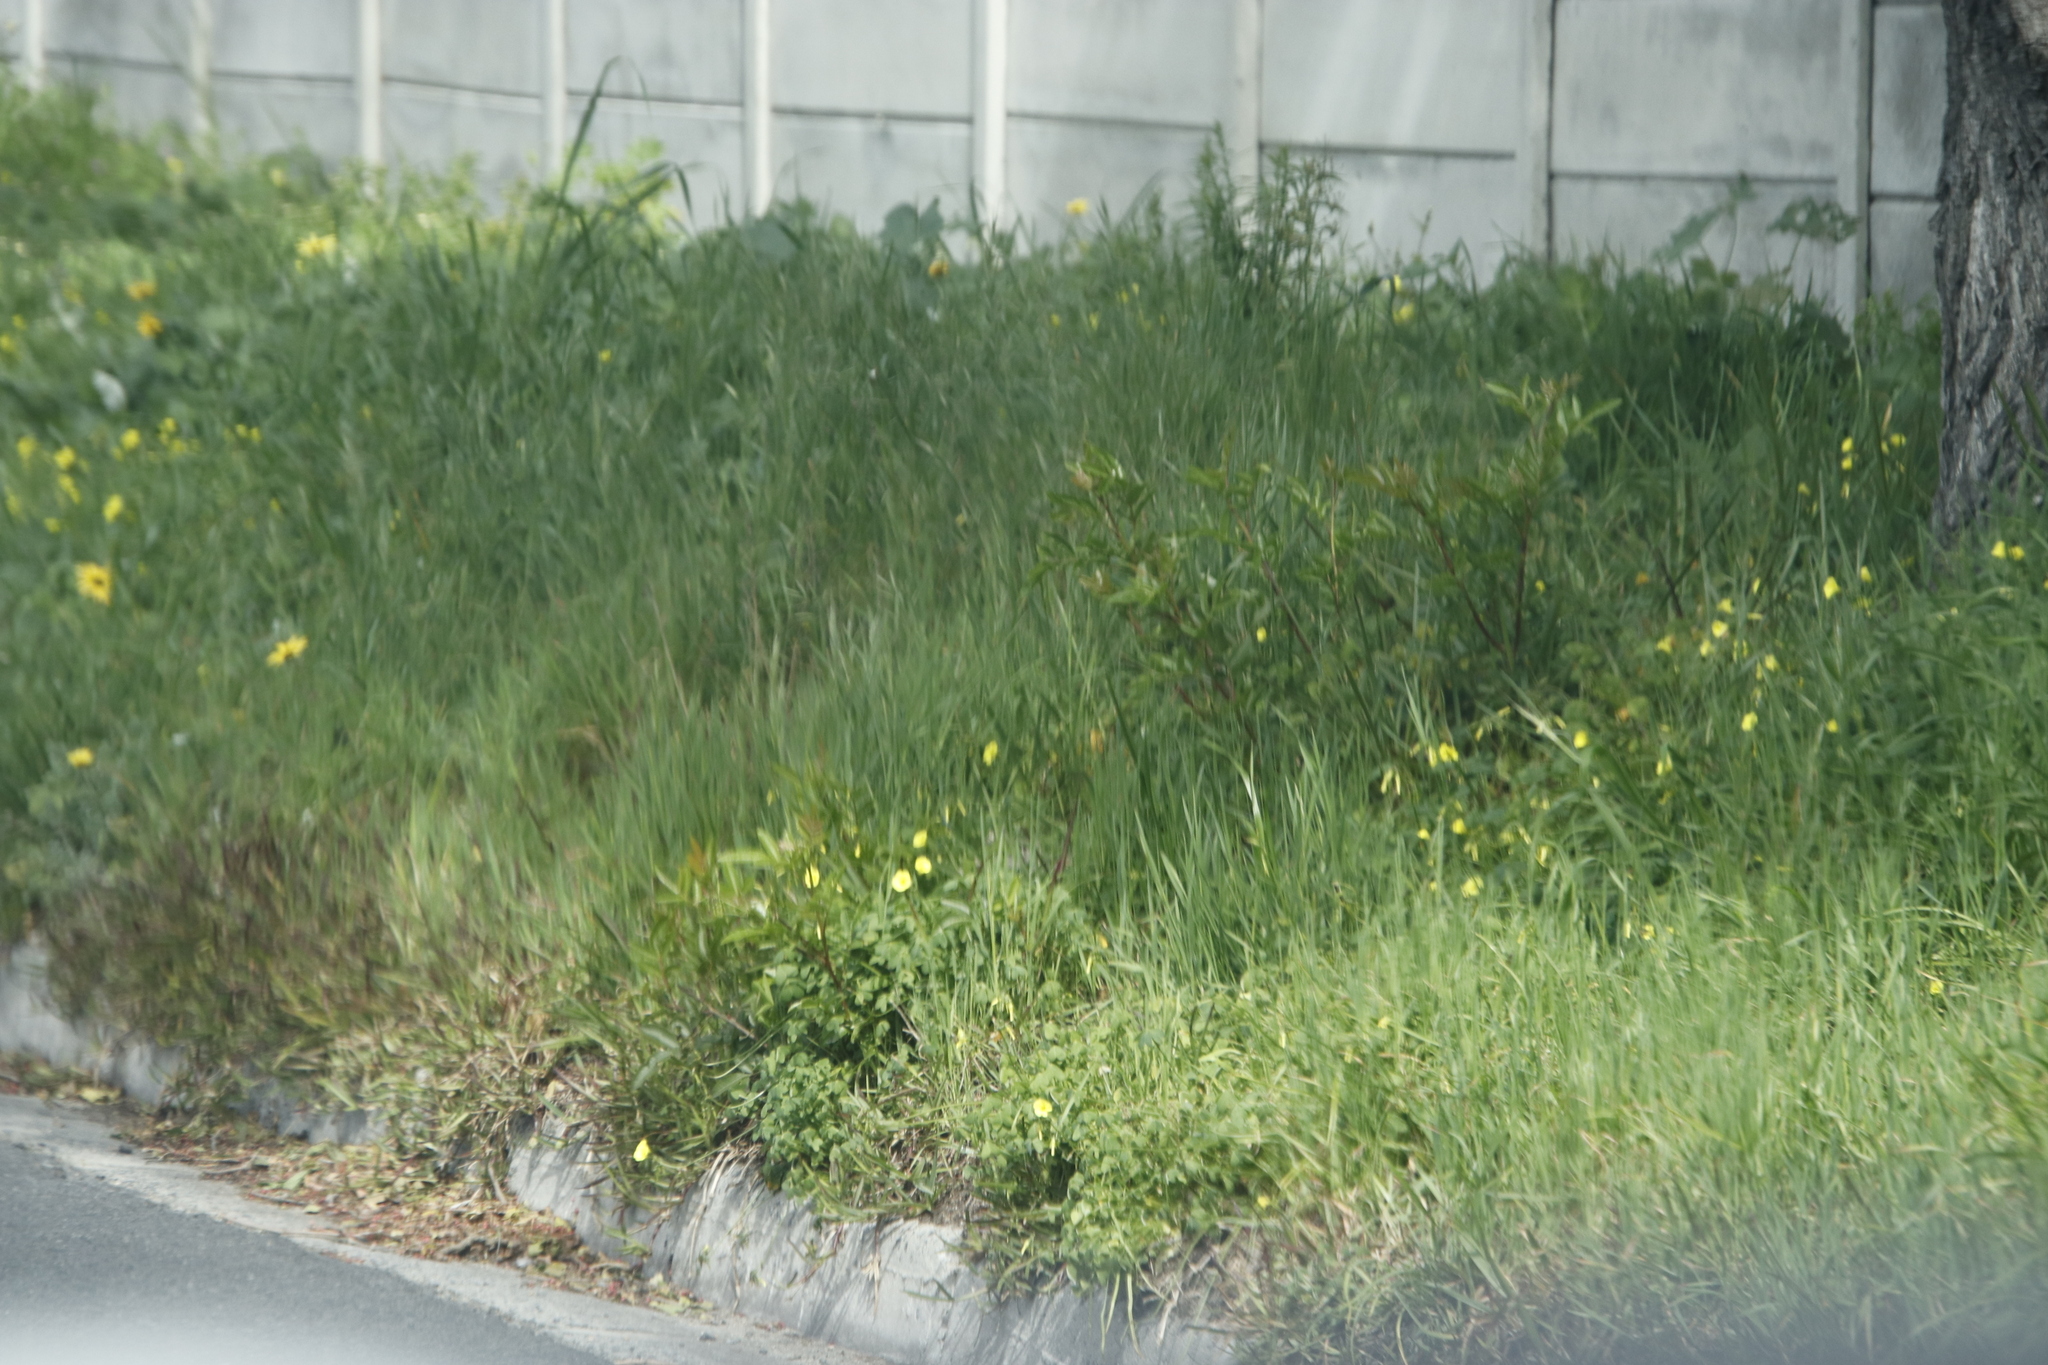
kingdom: Plantae
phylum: Tracheophyta
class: Magnoliopsida
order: Oxalidales
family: Oxalidaceae
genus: Oxalis
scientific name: Oxalis pes-caprae
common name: Bermuda-buttercup
